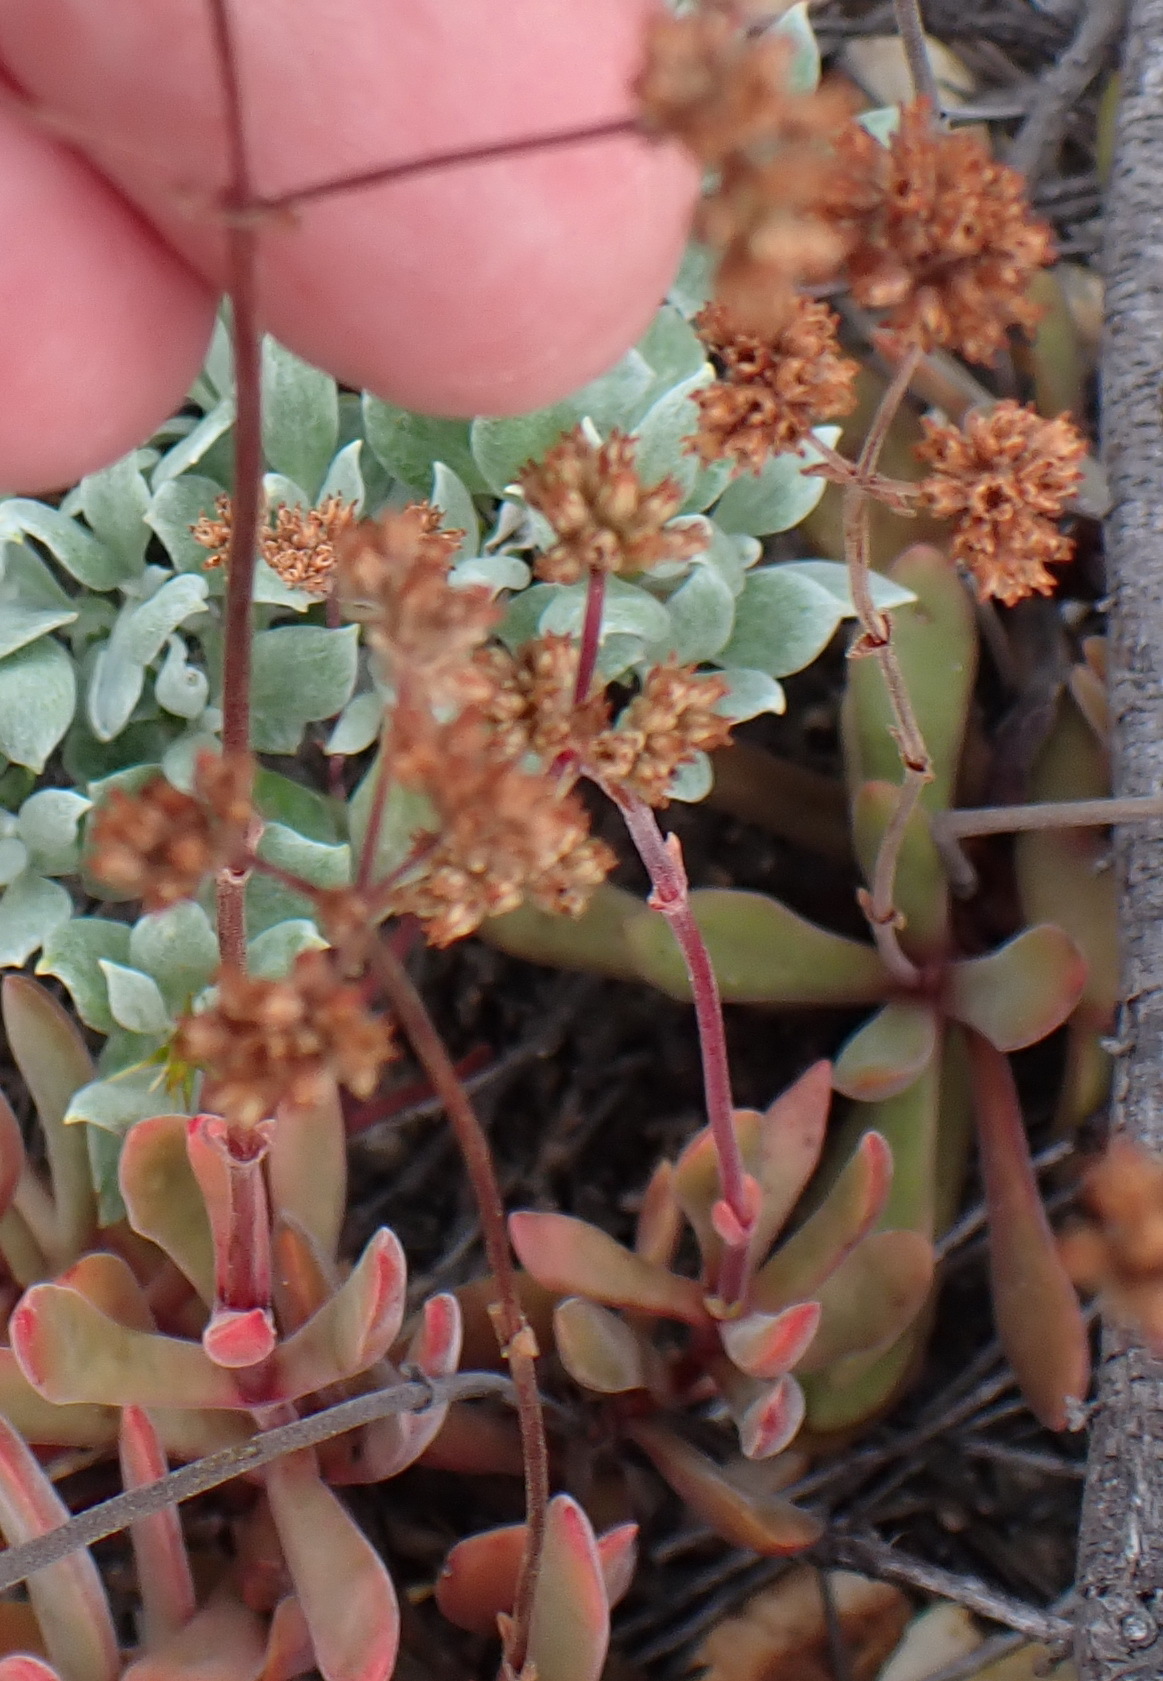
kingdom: Plantae
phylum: Tracheophyta
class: Magnoliopsida
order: Saxifragales
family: Crassulaceae
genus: Crassula
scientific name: Crassula pubescens
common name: Jersey pigmyweed
